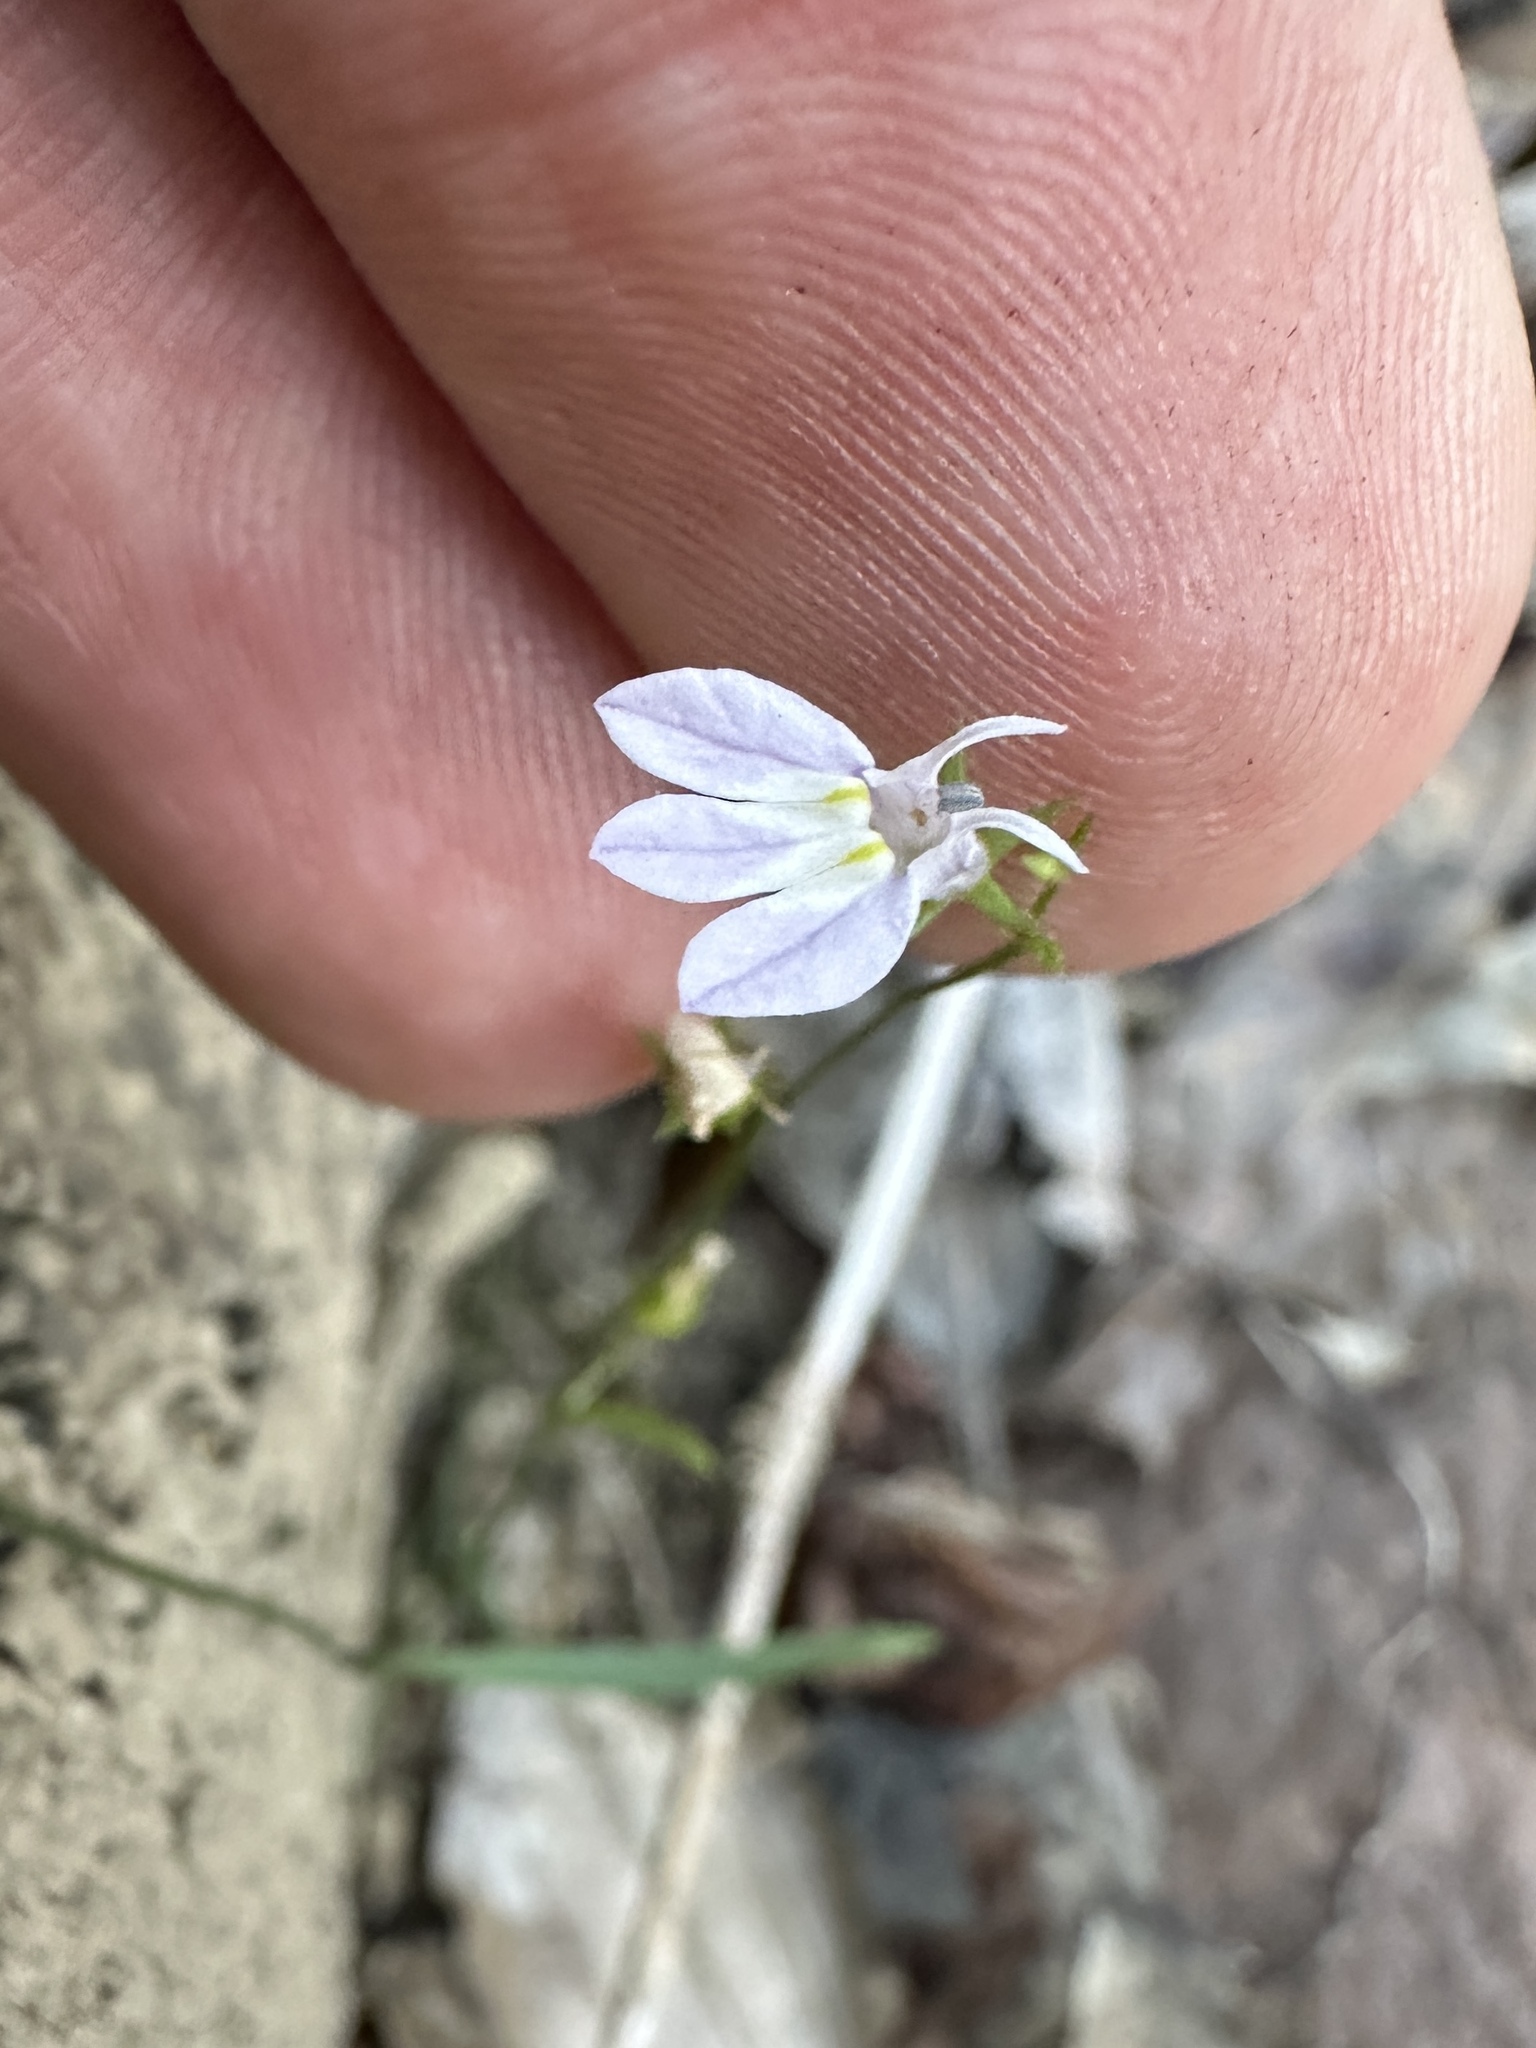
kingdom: Plantae
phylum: Tracheophyta
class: Magnoliopsida
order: Asterales
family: Campanulaceae
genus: Lobelia
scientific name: Lobelia nuttallii
